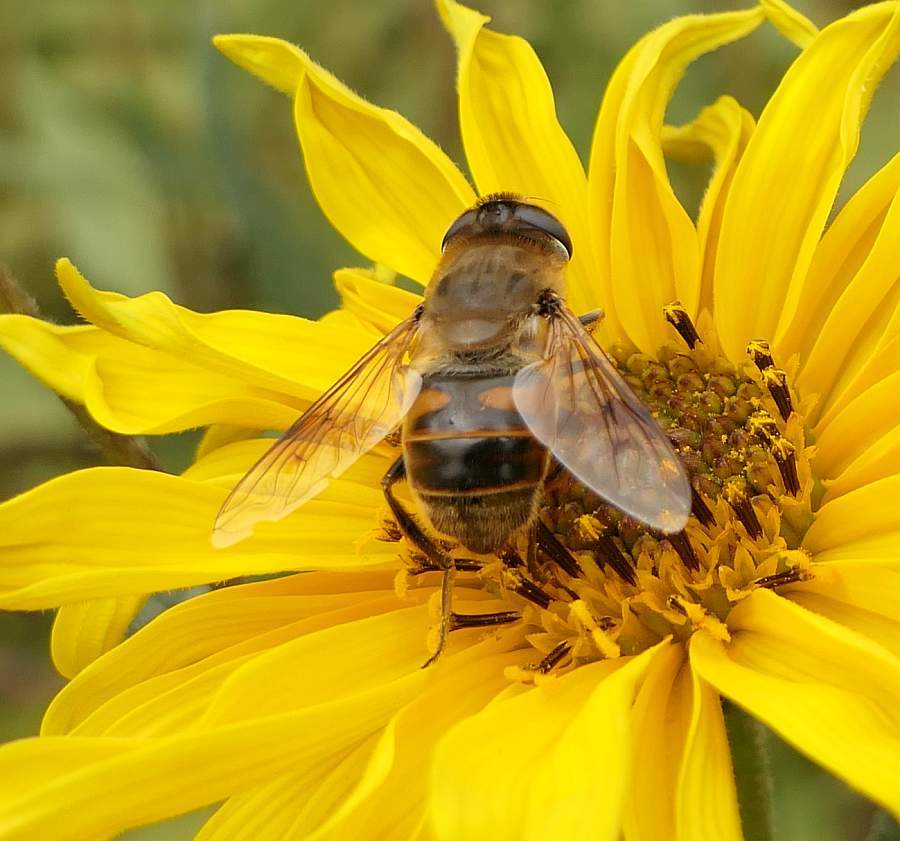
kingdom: Animalia
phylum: Arthropoda
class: Insecta
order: Diptera
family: Syrphidae
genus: Eristalis
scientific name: Eristalis tenax
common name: Drone fly
